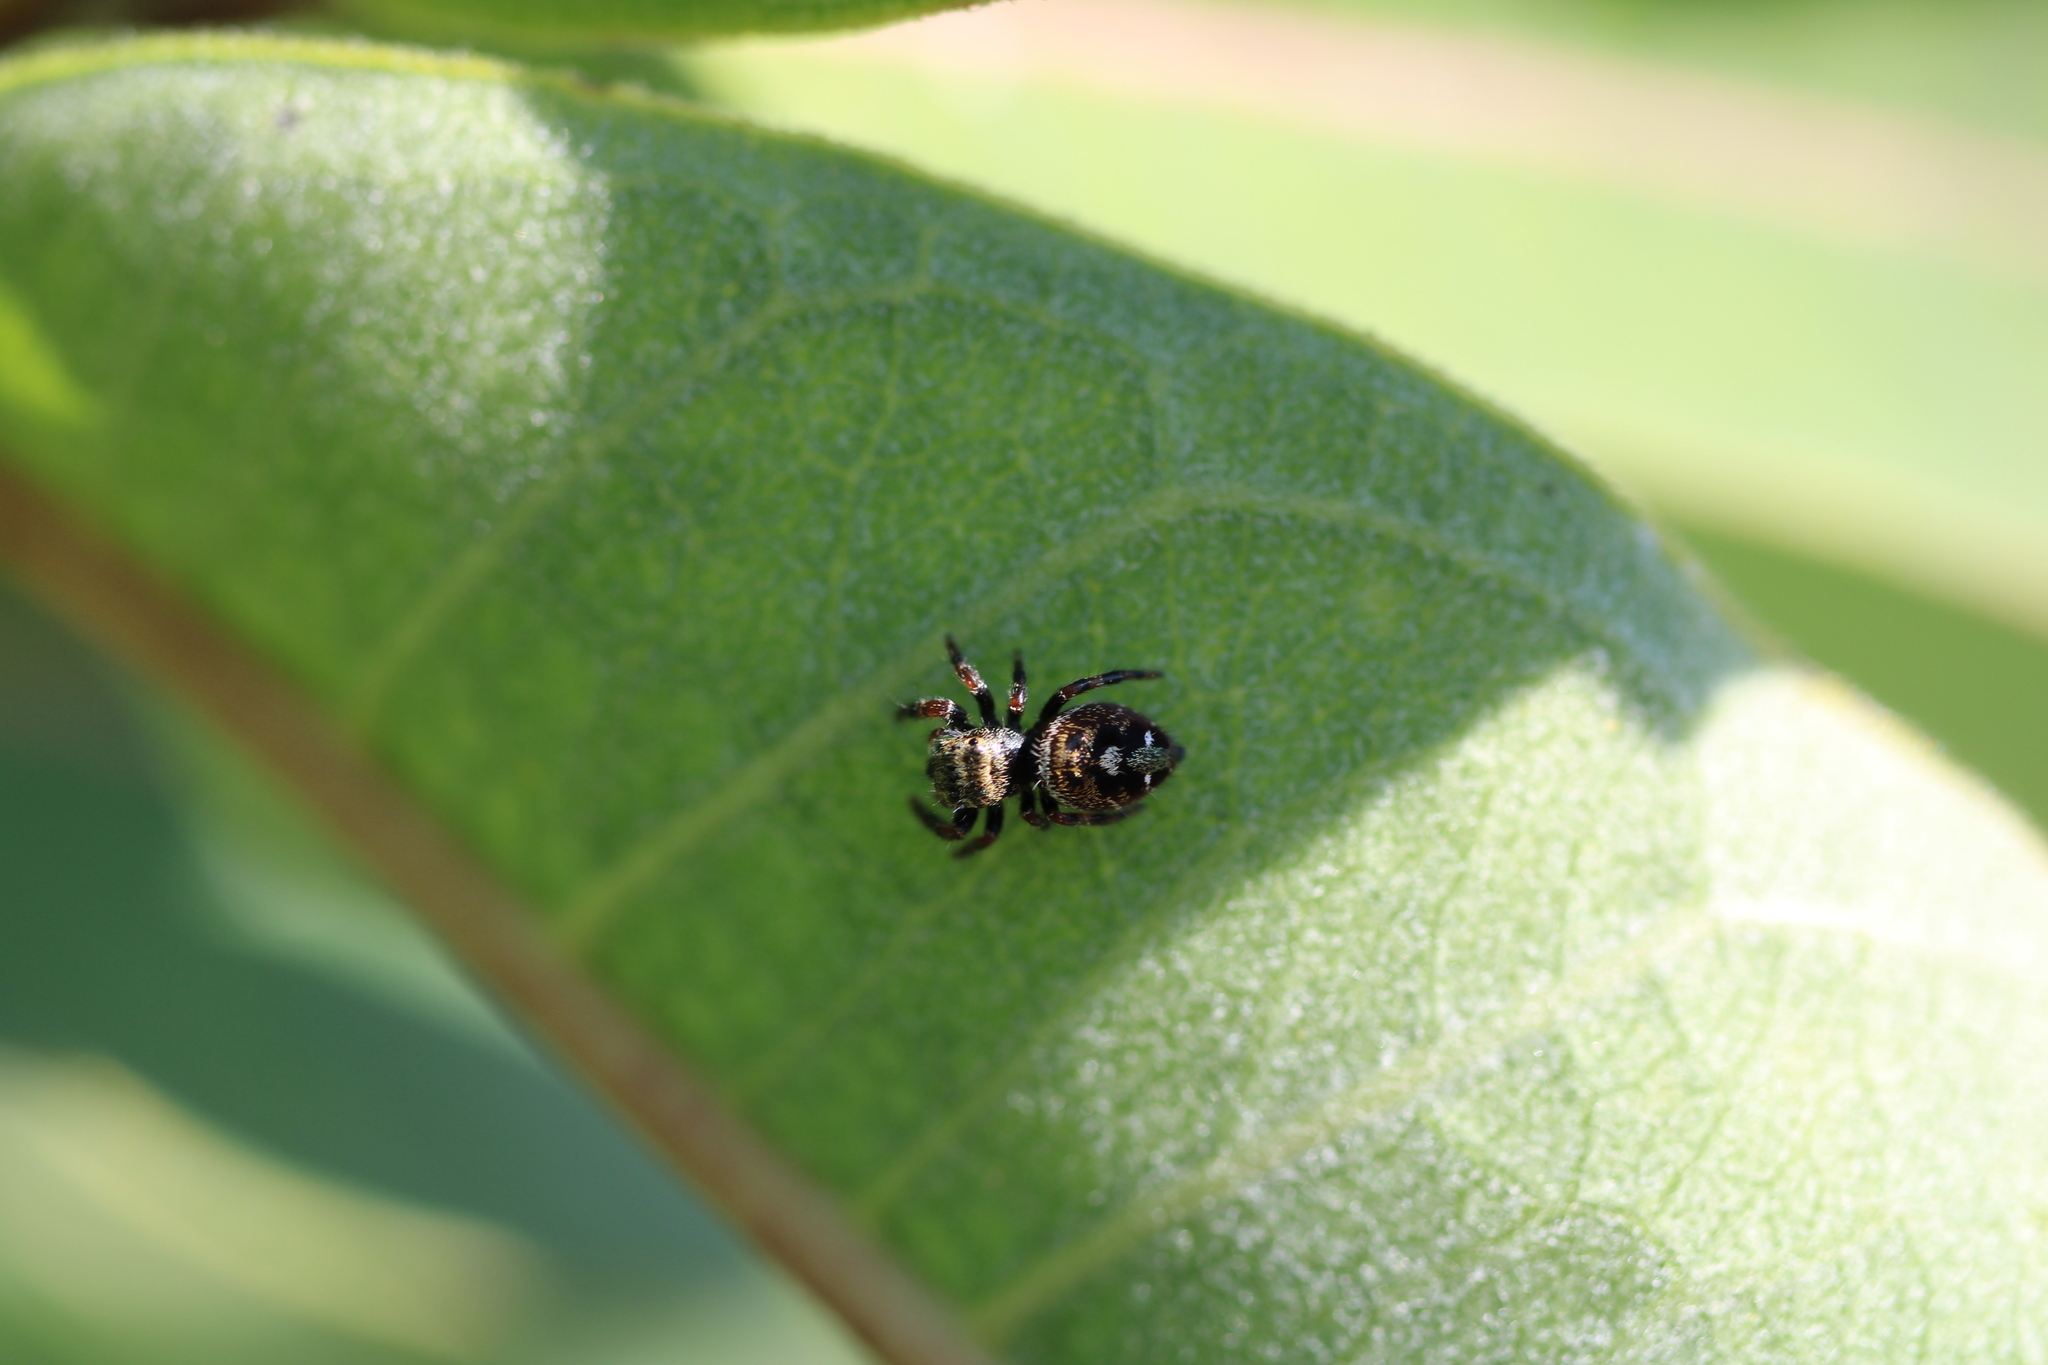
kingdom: Animalia
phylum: Arthropoda
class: Arachnida
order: Araneae
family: Salticidae
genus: Phidippus
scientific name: Phidippus audax
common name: Bold jumper
